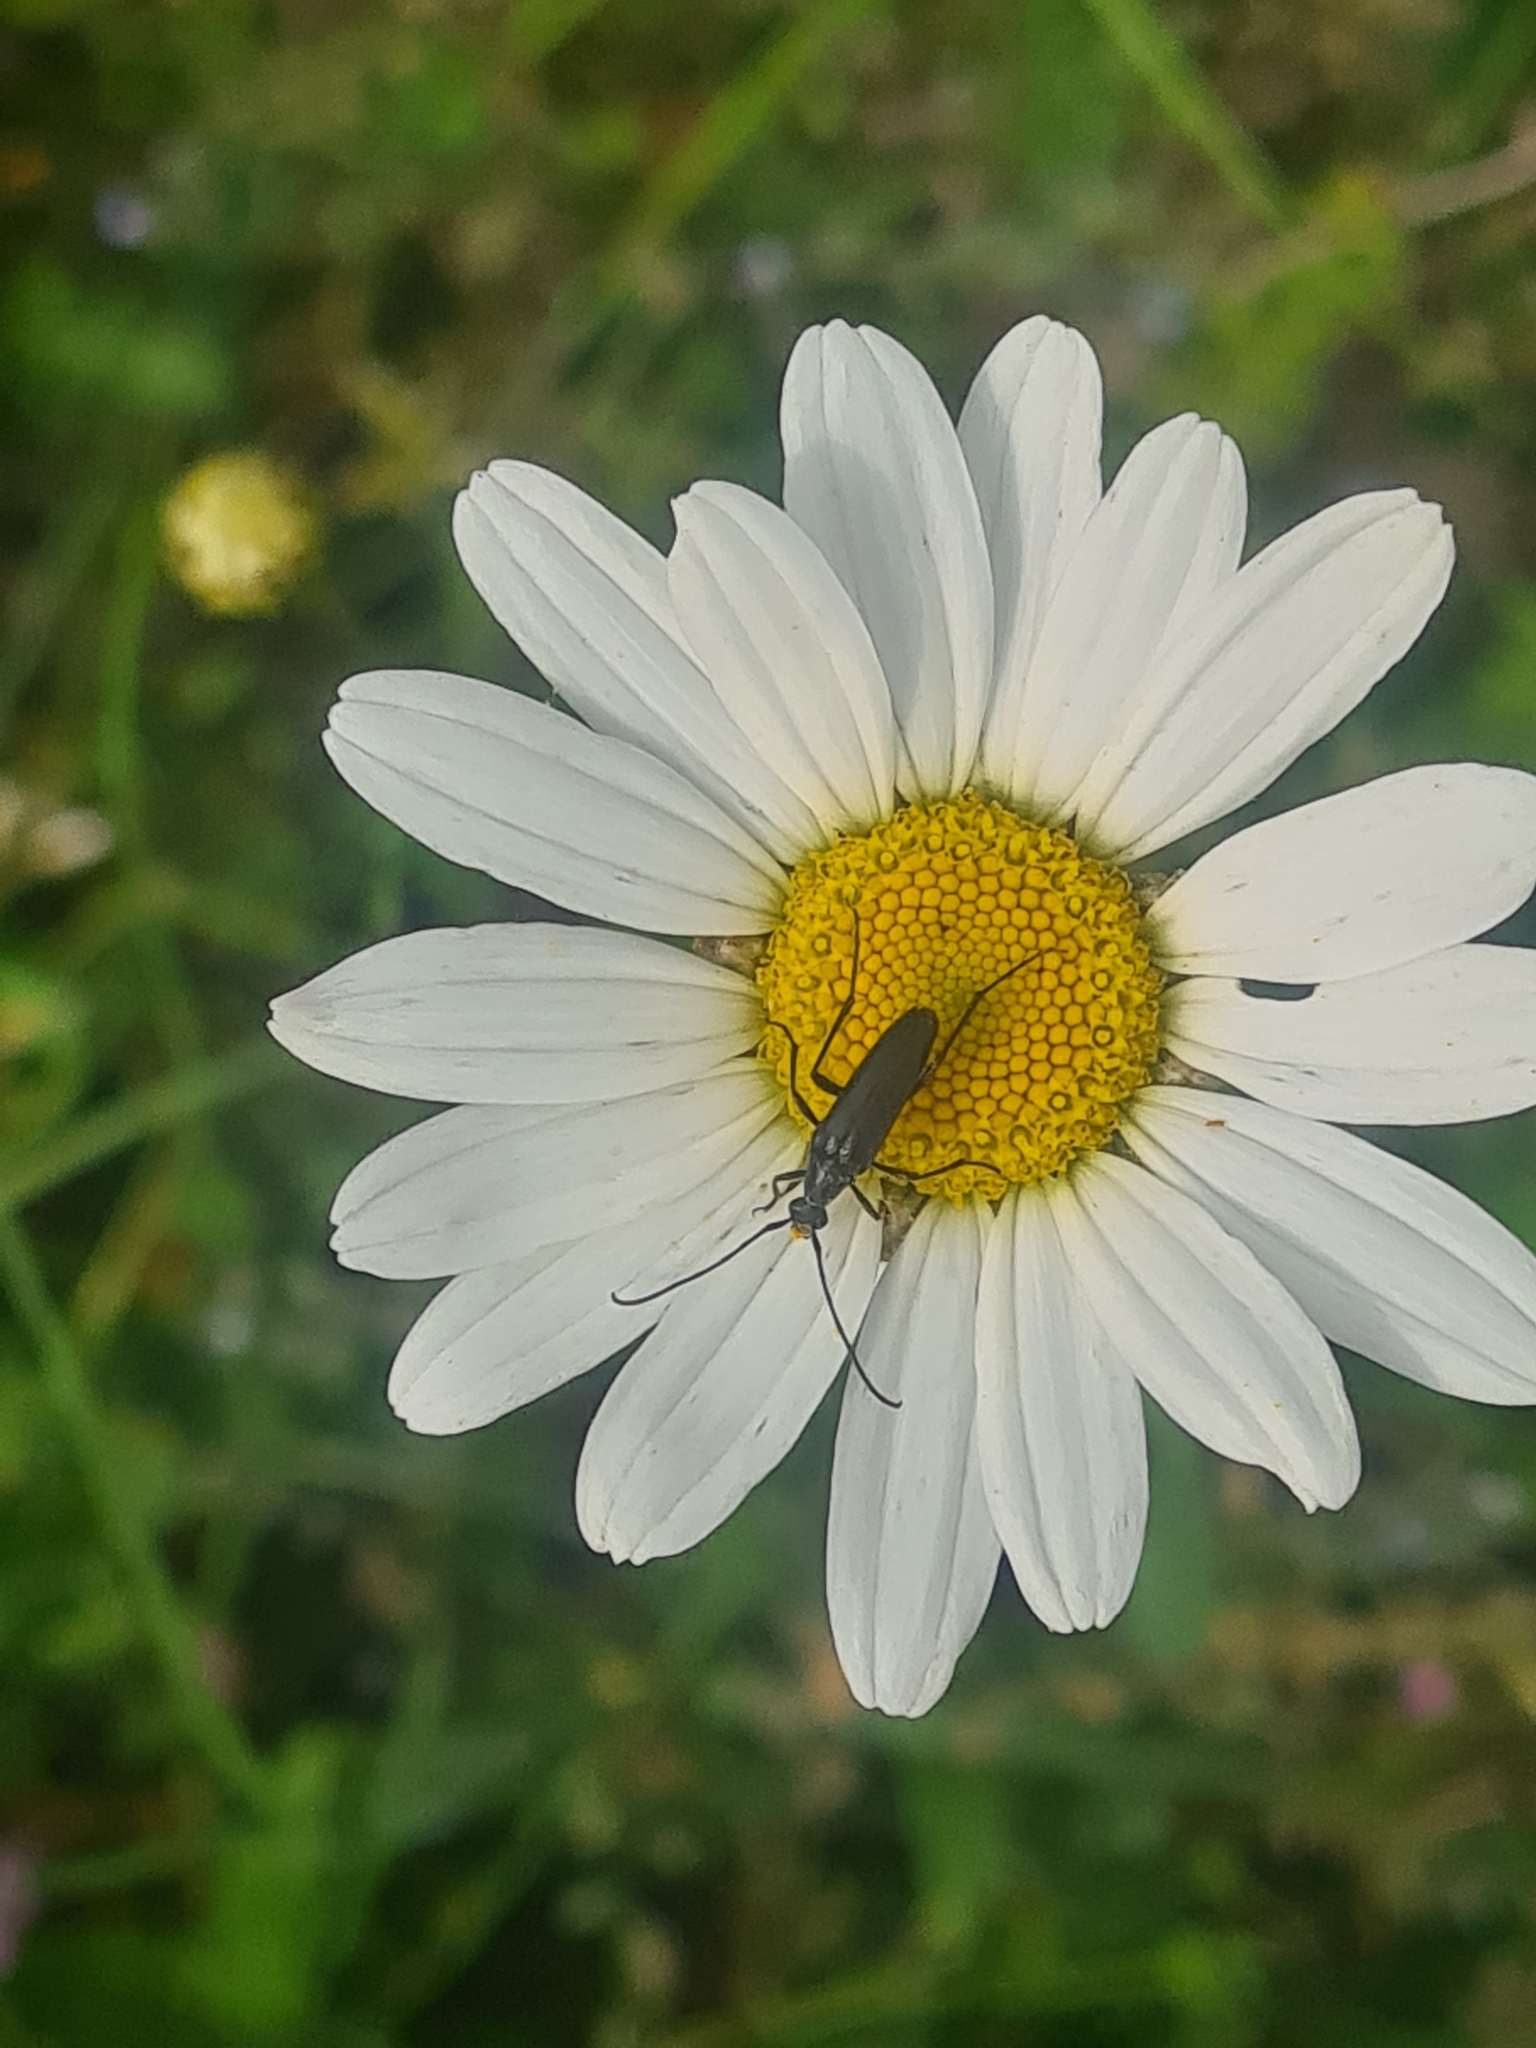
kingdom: Animalia
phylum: Arthropoda
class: Insecta
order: Coleoptera
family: Cerambycidae
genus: Stenurella
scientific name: Stenurella nigra
